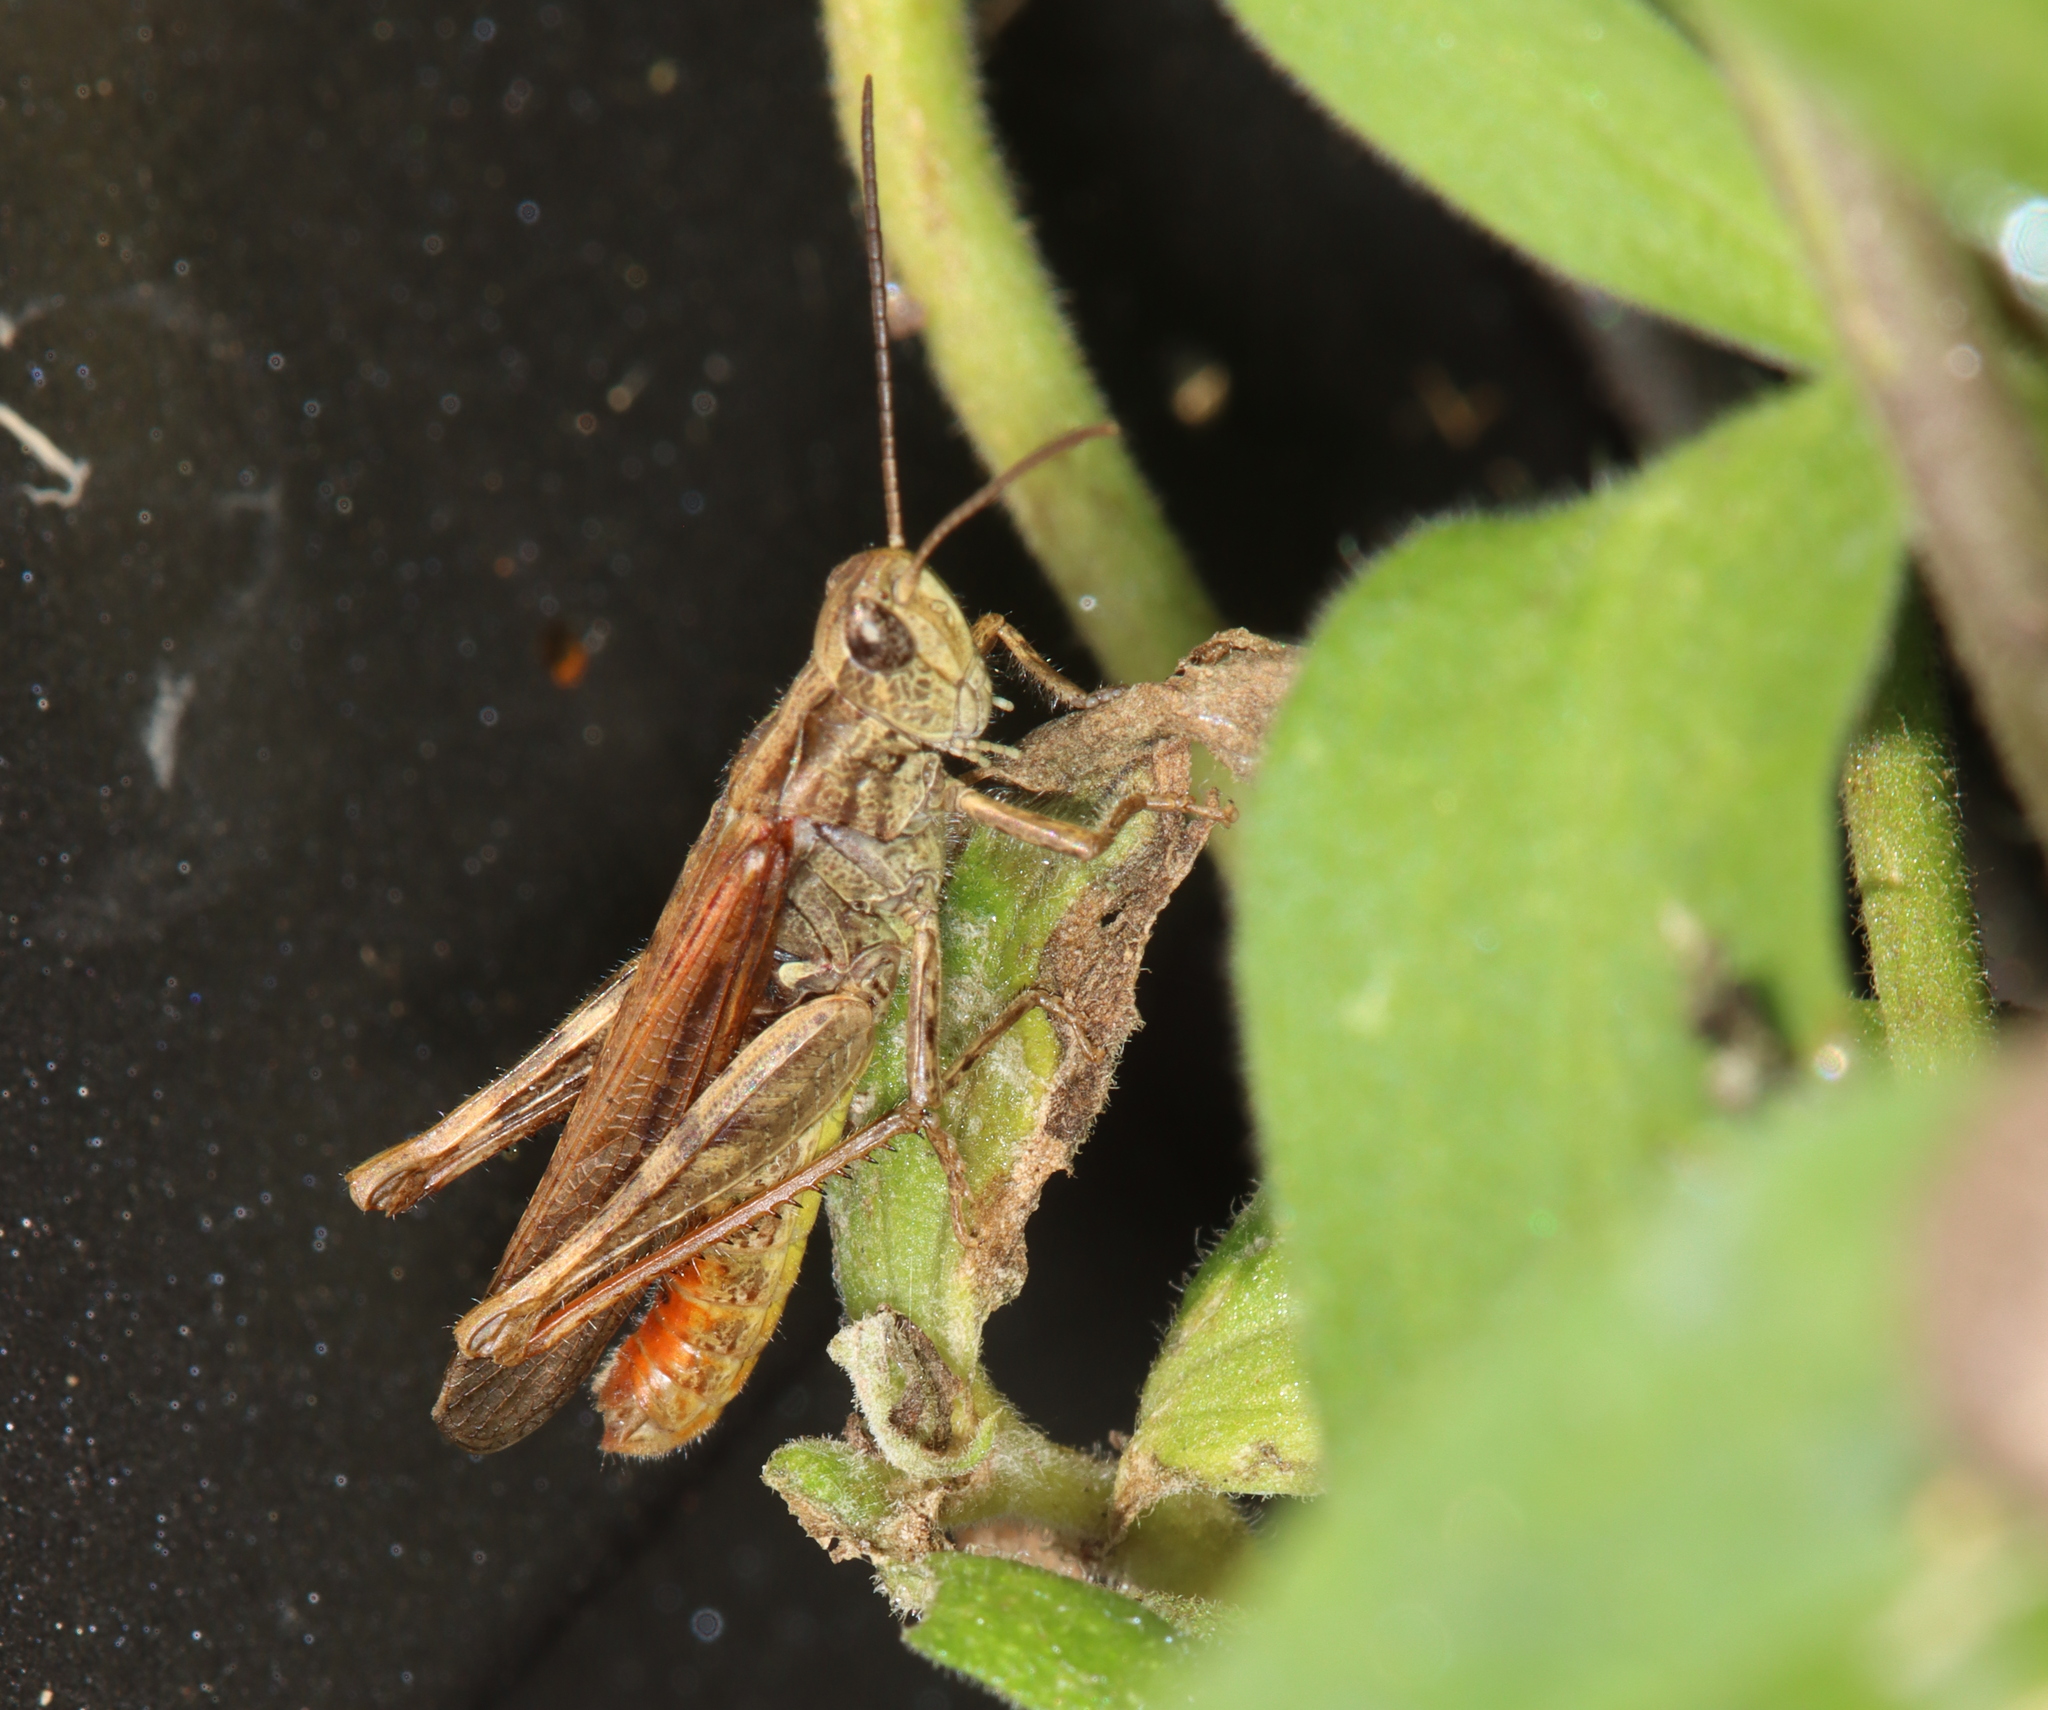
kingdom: Animalia
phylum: Arthropoda
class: Insecta
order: Orthoptera
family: Acrididae
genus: Chorthippus
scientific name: Chorthippus brunneus
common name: Field grasshopper
